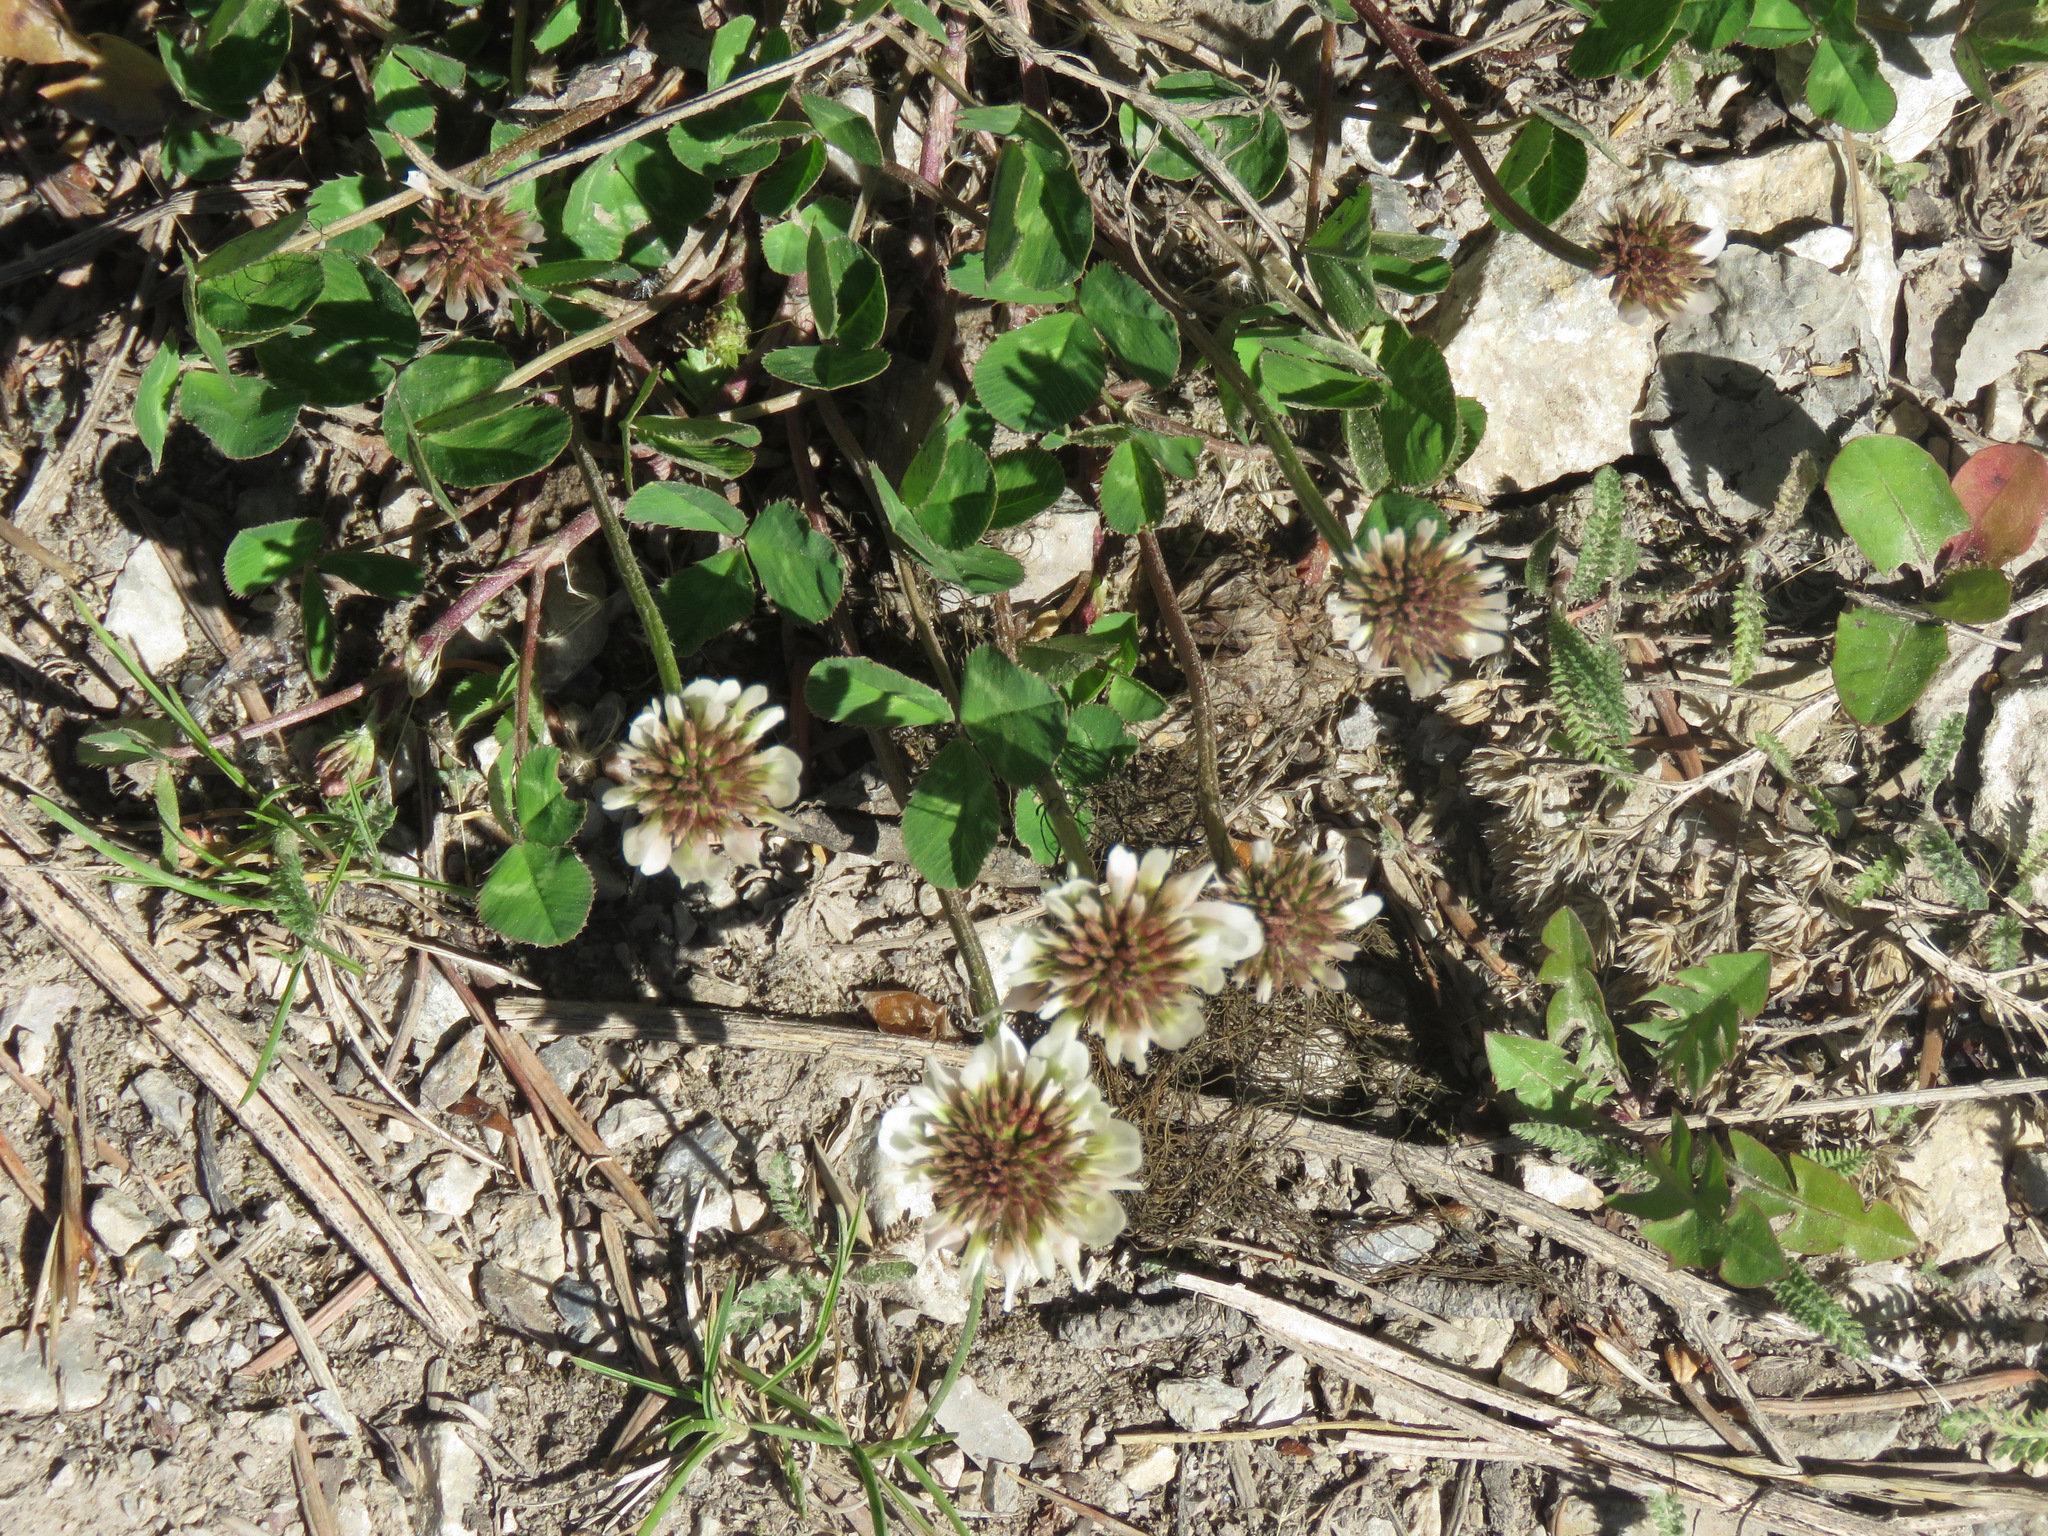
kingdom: Plantae
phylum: Tracheophyta
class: Magnoliopsida
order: Fabales
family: Fabaceae
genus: Trifolium
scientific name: Trifolium repens
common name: White clover
